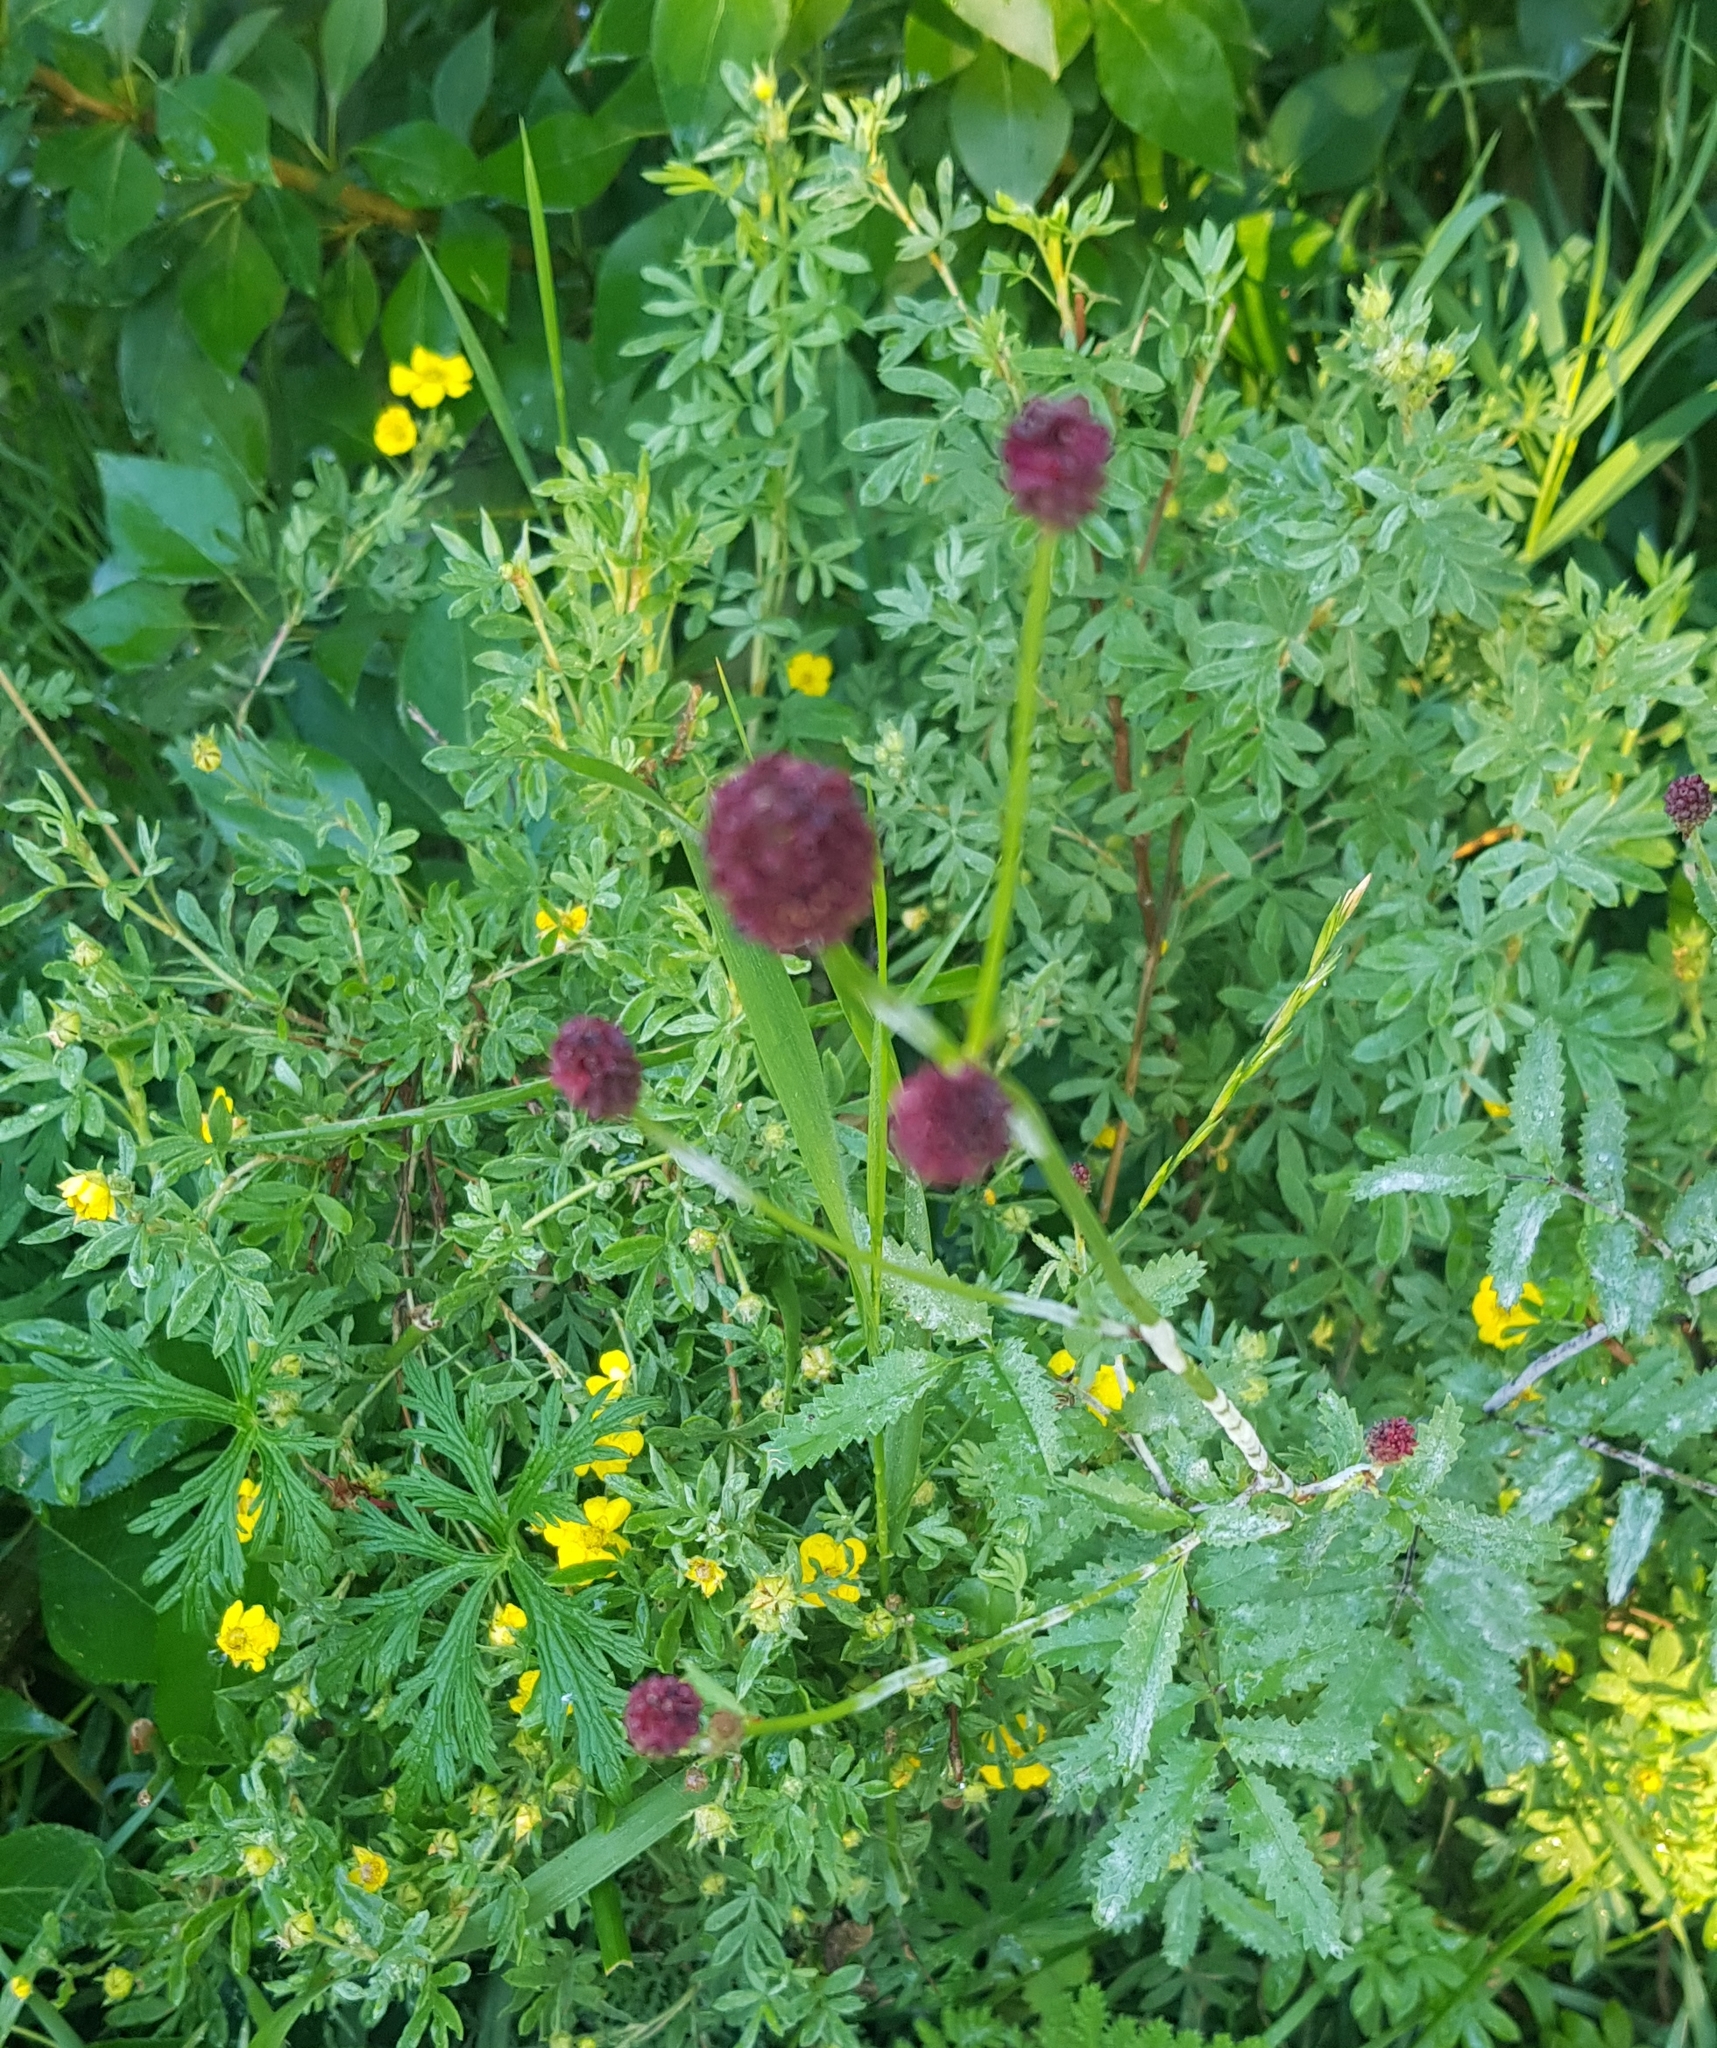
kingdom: Plantae
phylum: Tracheophyta
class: Magnoliopsida
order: Rosales
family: Rosaceae
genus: Sanguisorba
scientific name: Sanguisorba officinalis
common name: Great burnet
